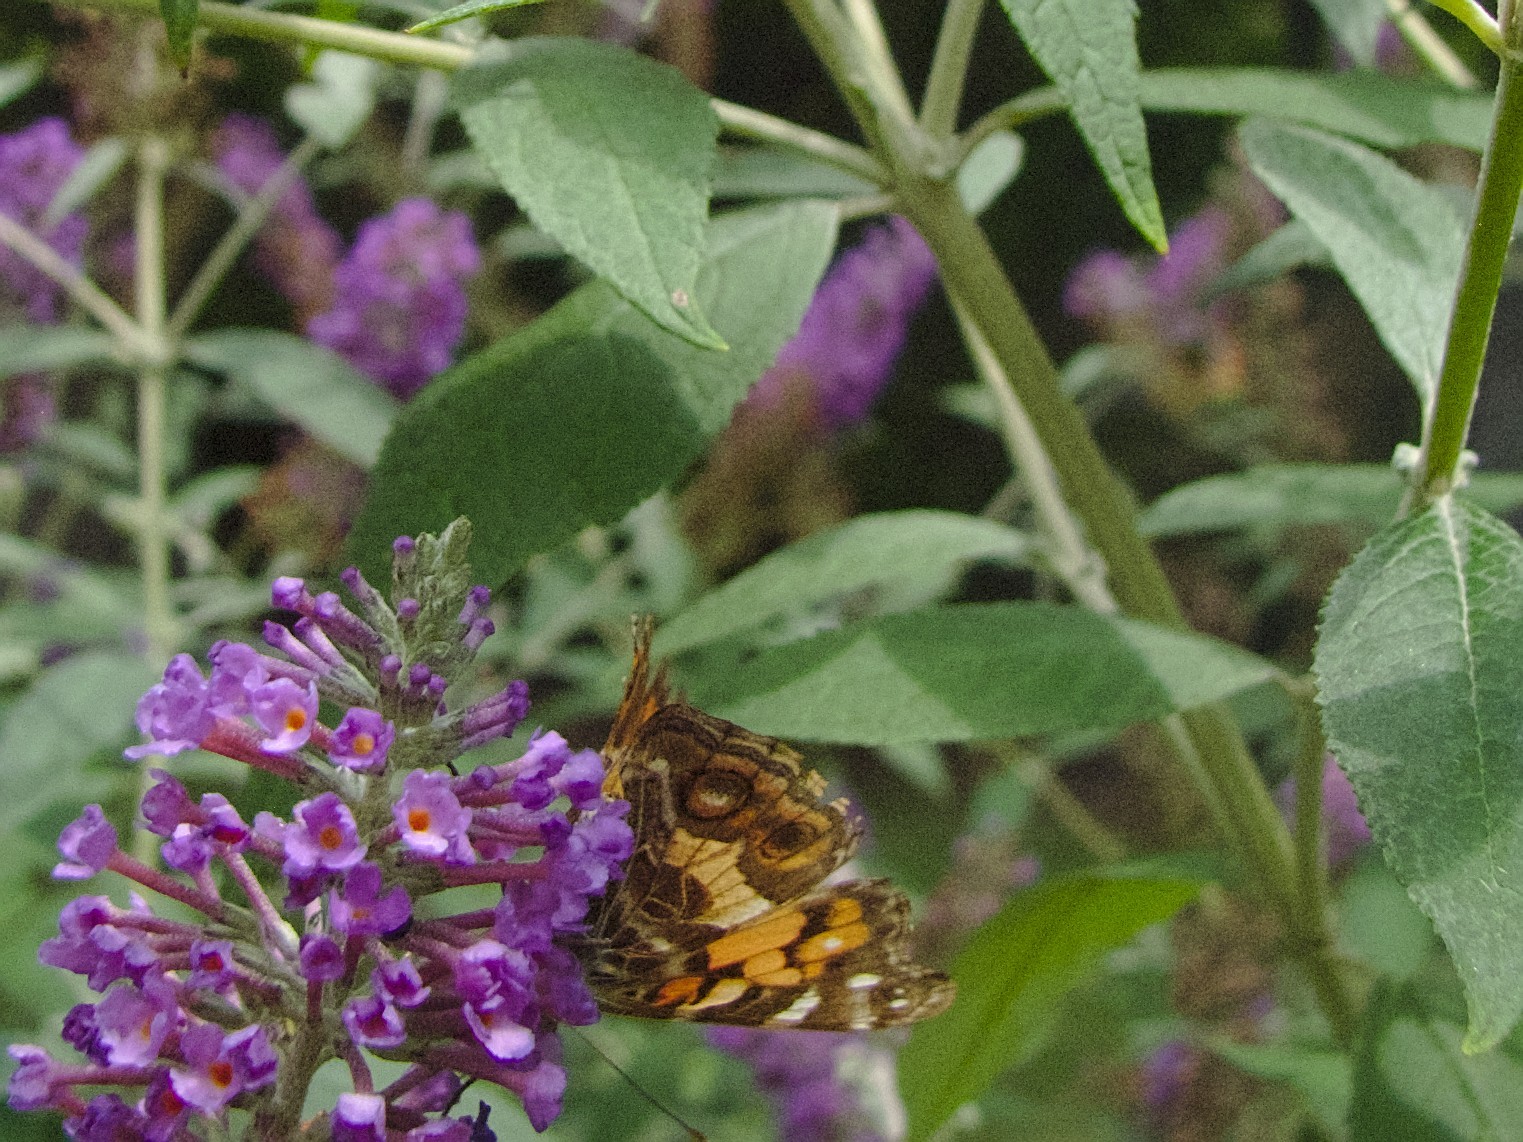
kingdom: Animalia
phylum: Arthropoda
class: Insecta
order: Lepidoptera
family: Nymphalidae
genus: Vanessa
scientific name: Vanessa virginiensis
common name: American lady
